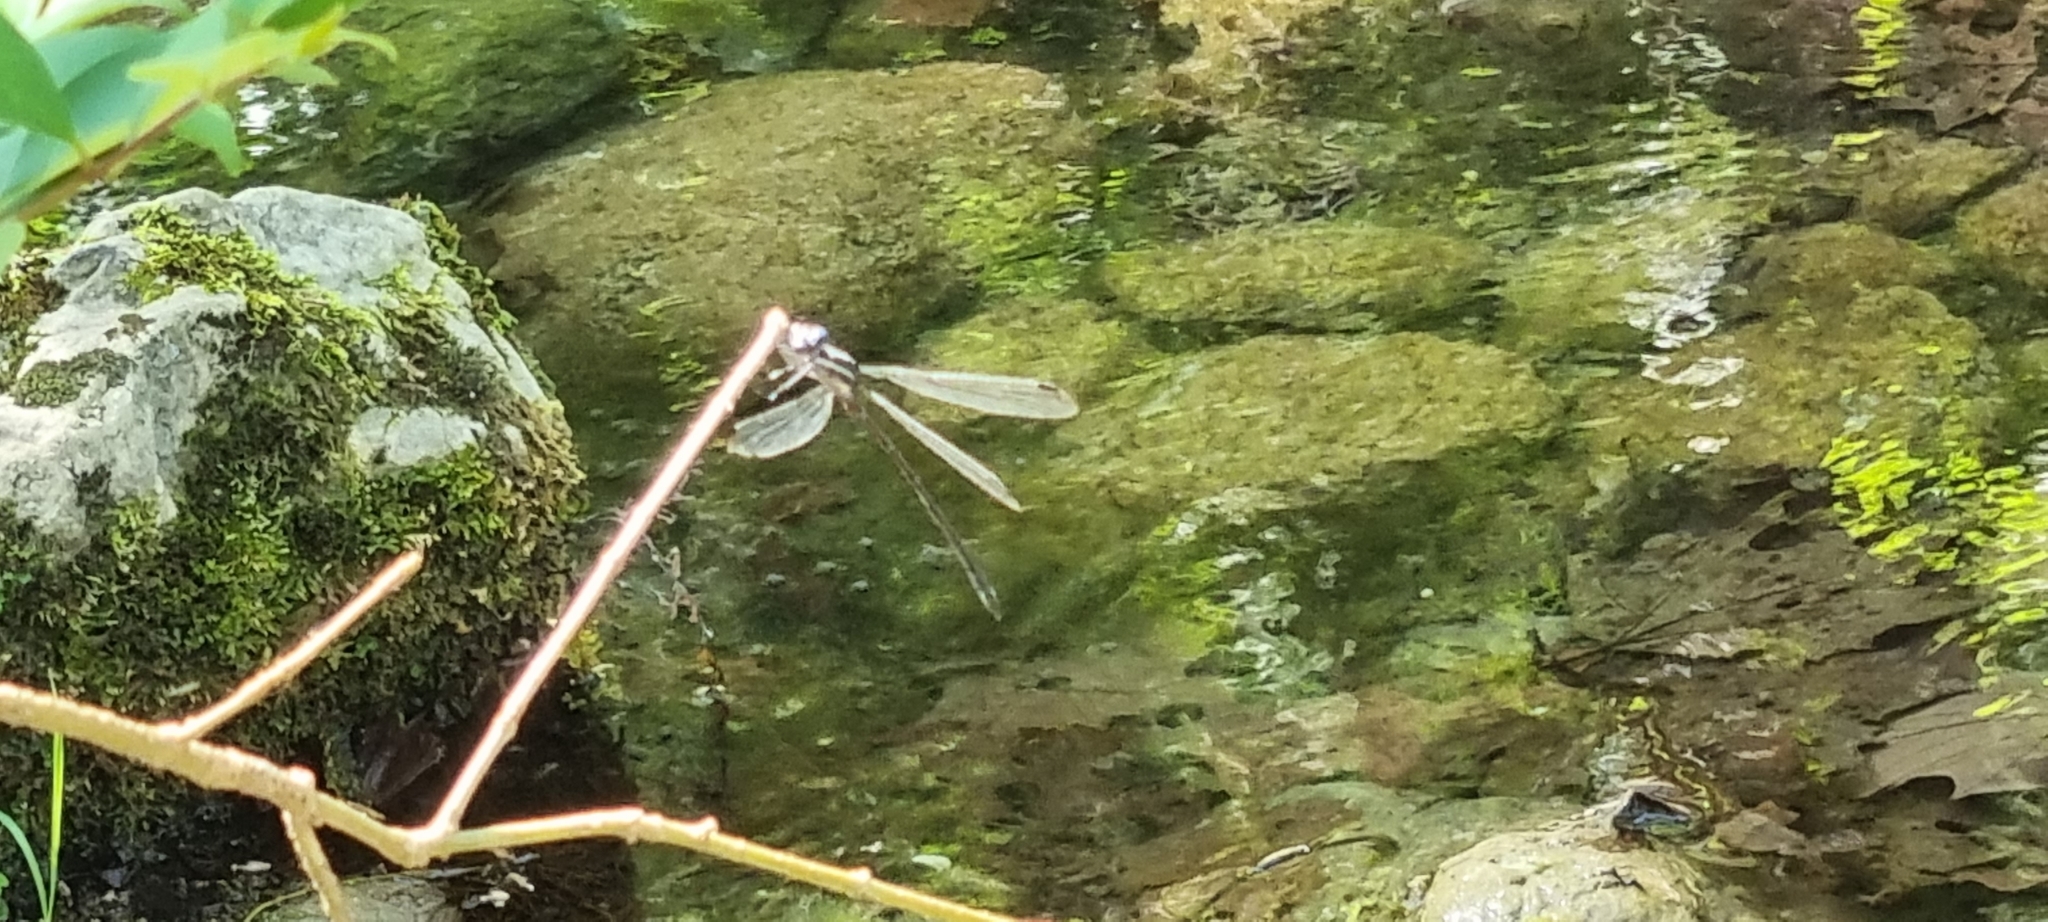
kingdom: Animalia
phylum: Arthropoda
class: Insecta
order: Odonata
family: Lestidae
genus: Archilestes
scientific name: Archilestes grandis
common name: Great spreadwing
